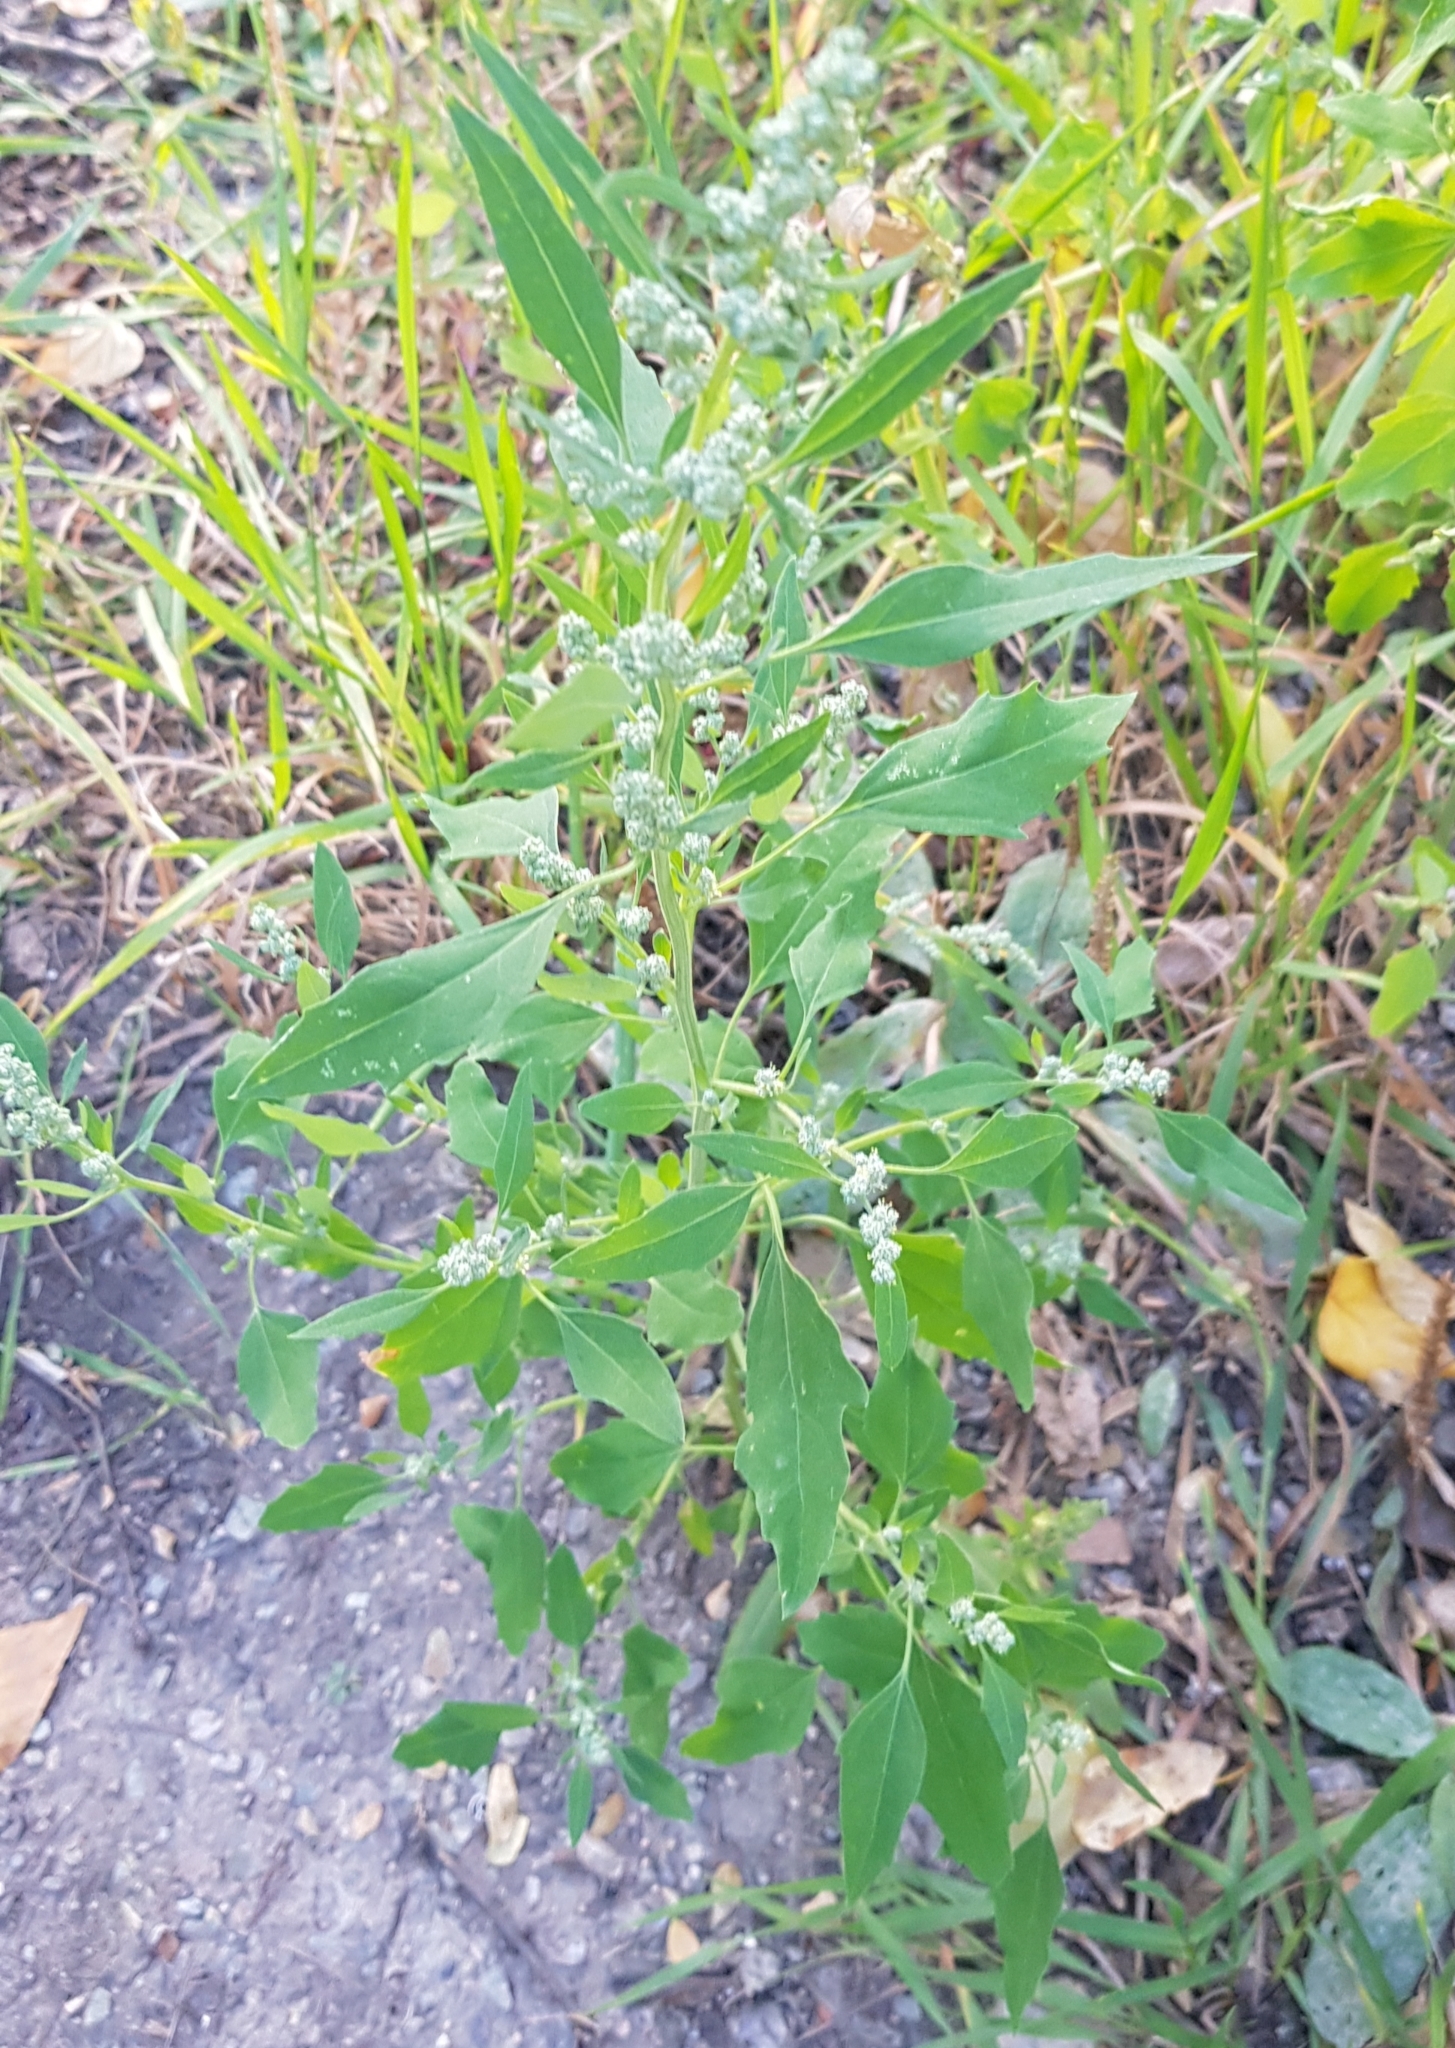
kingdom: Plantae
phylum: Tracheophyta
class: Magnoliopsida
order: Caryophyllales
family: Amaranthaceae
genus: Chenopodium
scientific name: Chenopodium album
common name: Fat-hen
